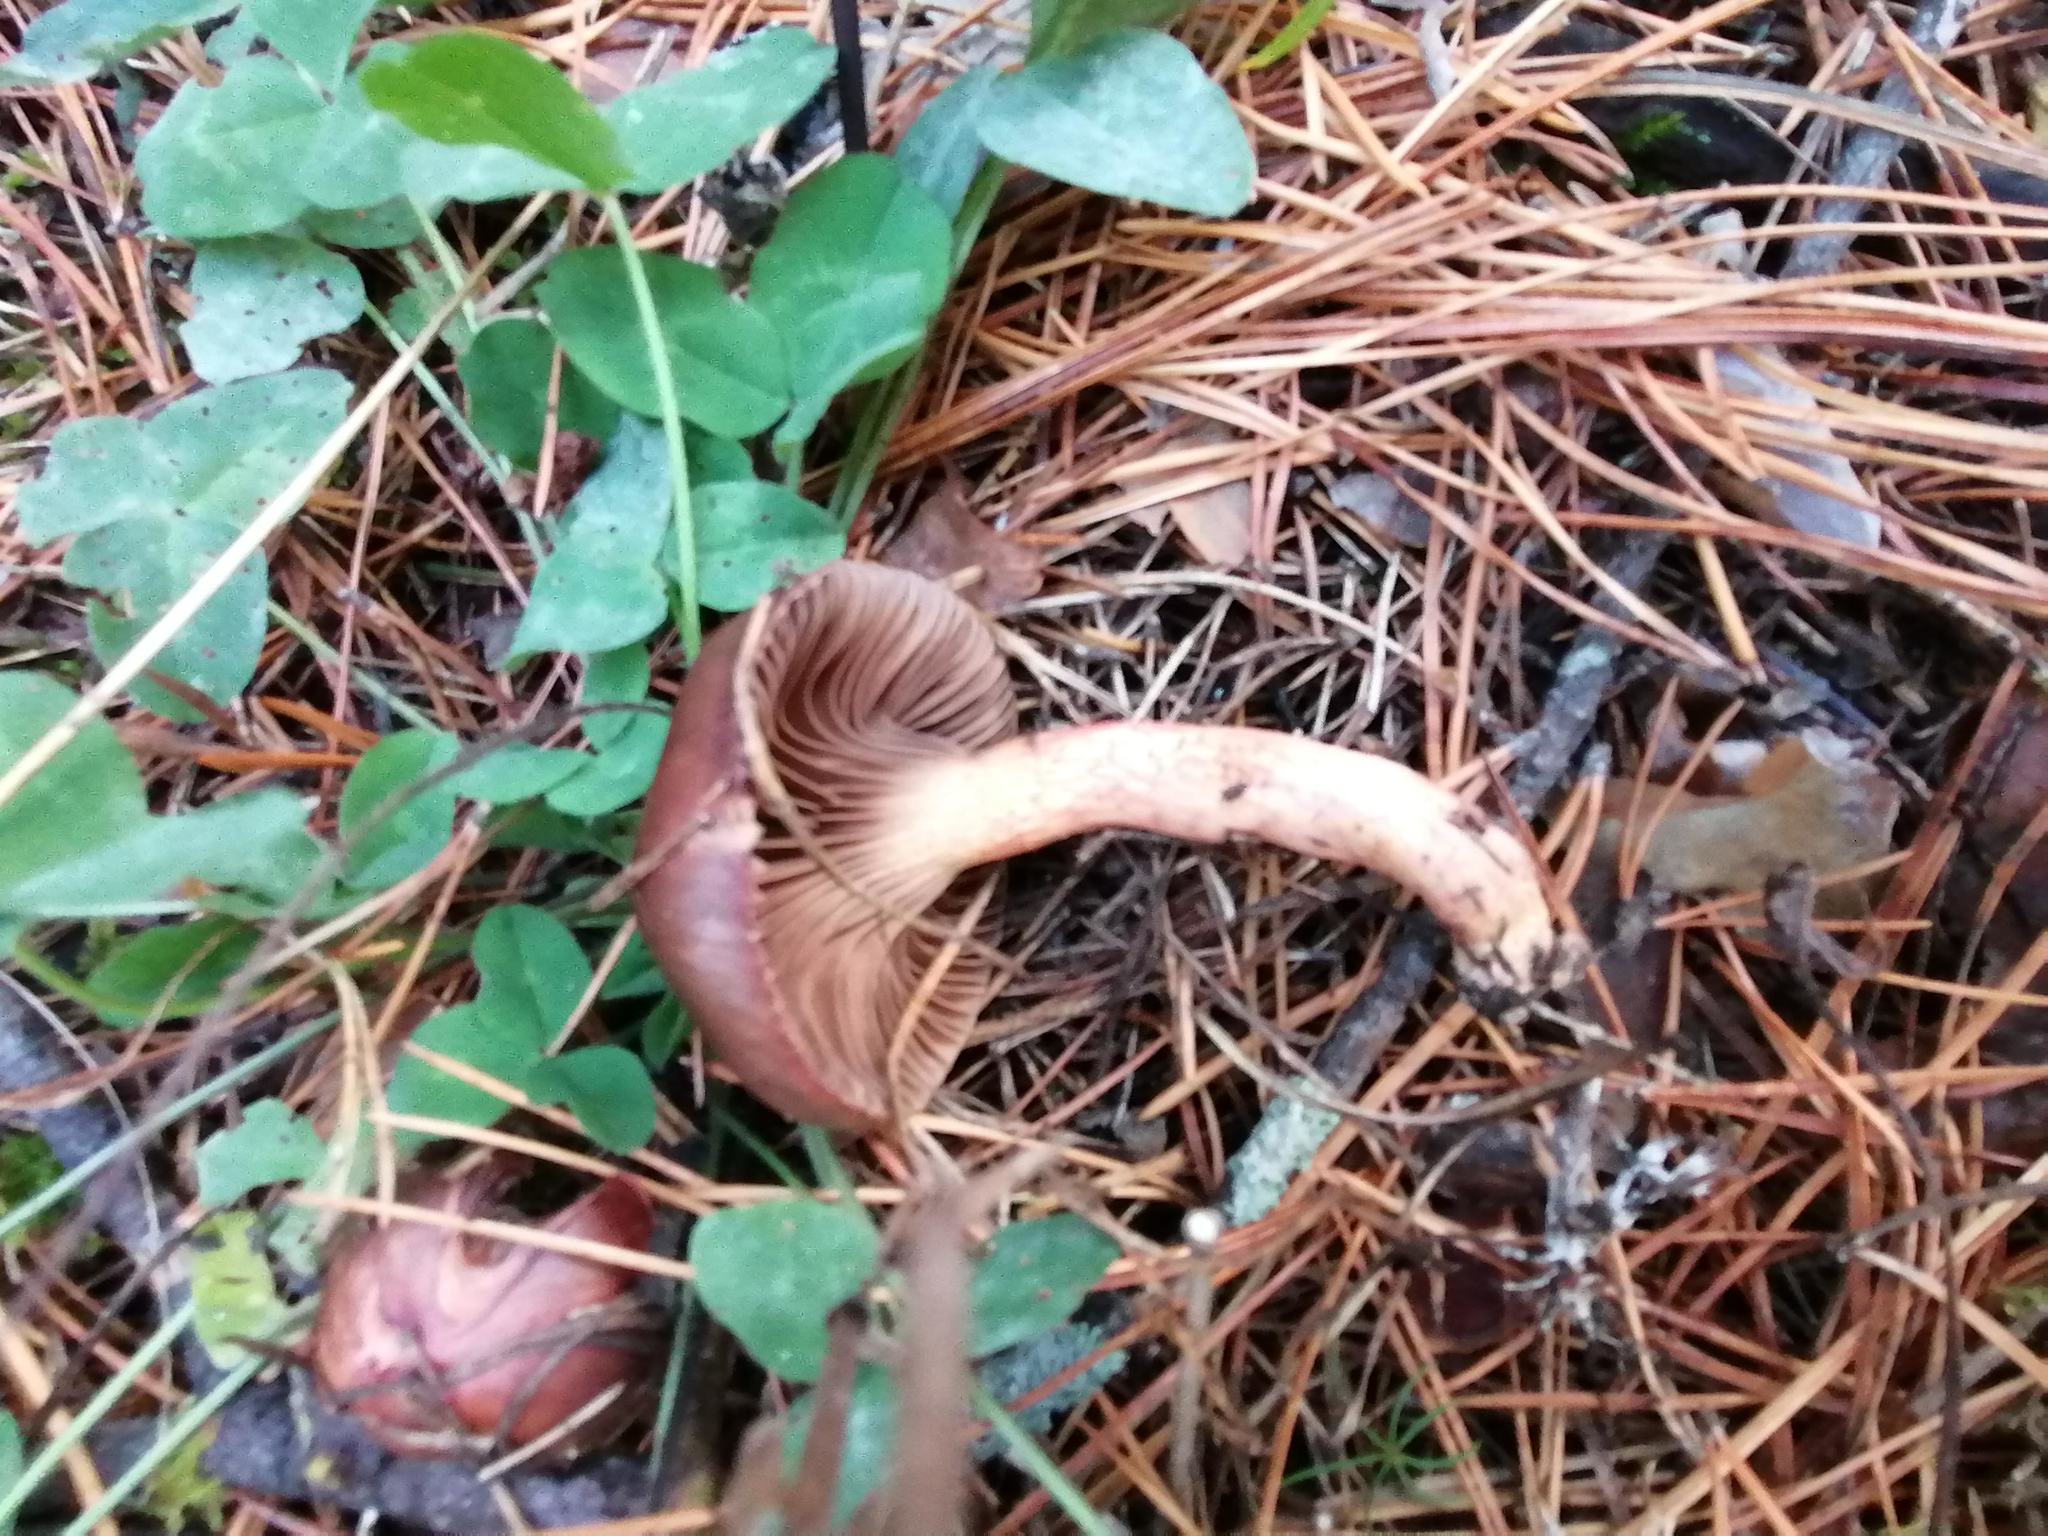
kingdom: Fungi
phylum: Basidiomycota
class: Agaricomycetes
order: Boletales
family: Gomphidiaceae
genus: Chroogomphus
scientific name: Chroogomphus rutilus
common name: Copper spike
